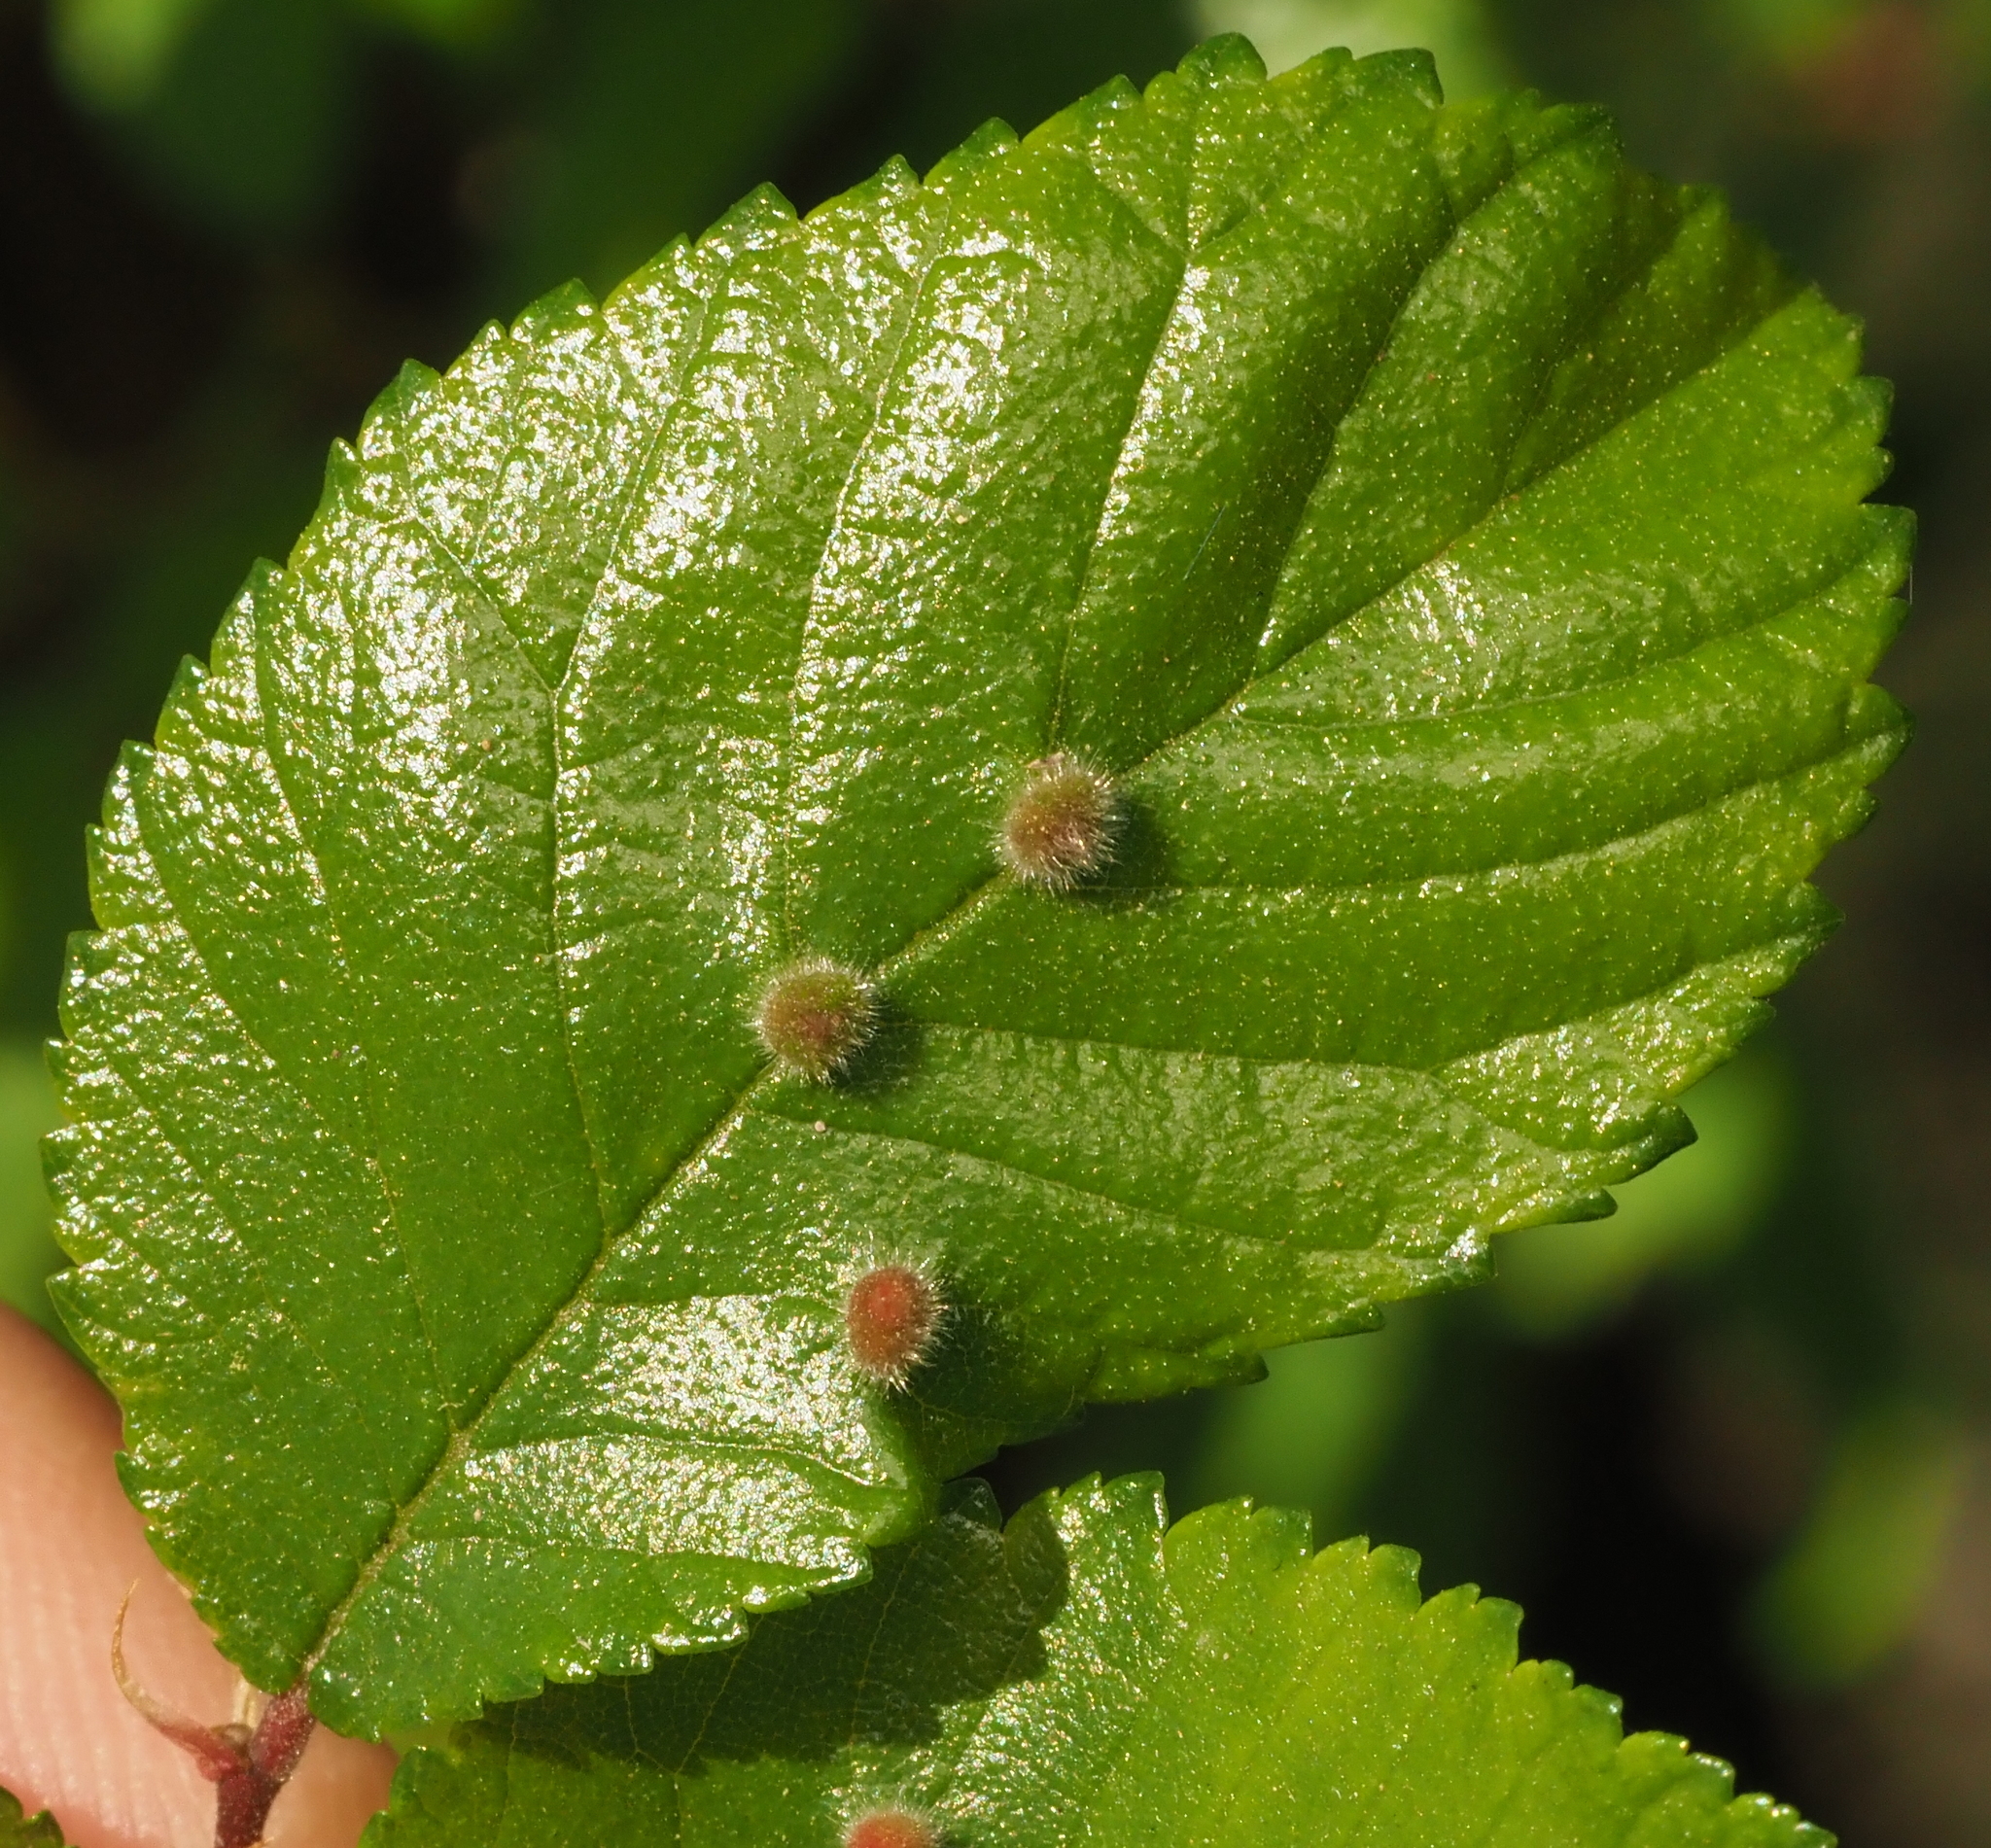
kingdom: Plantae
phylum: Tracheophyta
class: Magnoliopsida
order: Rosales
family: Ulmaceae
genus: Ulmus
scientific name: Ulmus crassifolia
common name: Basket elm
